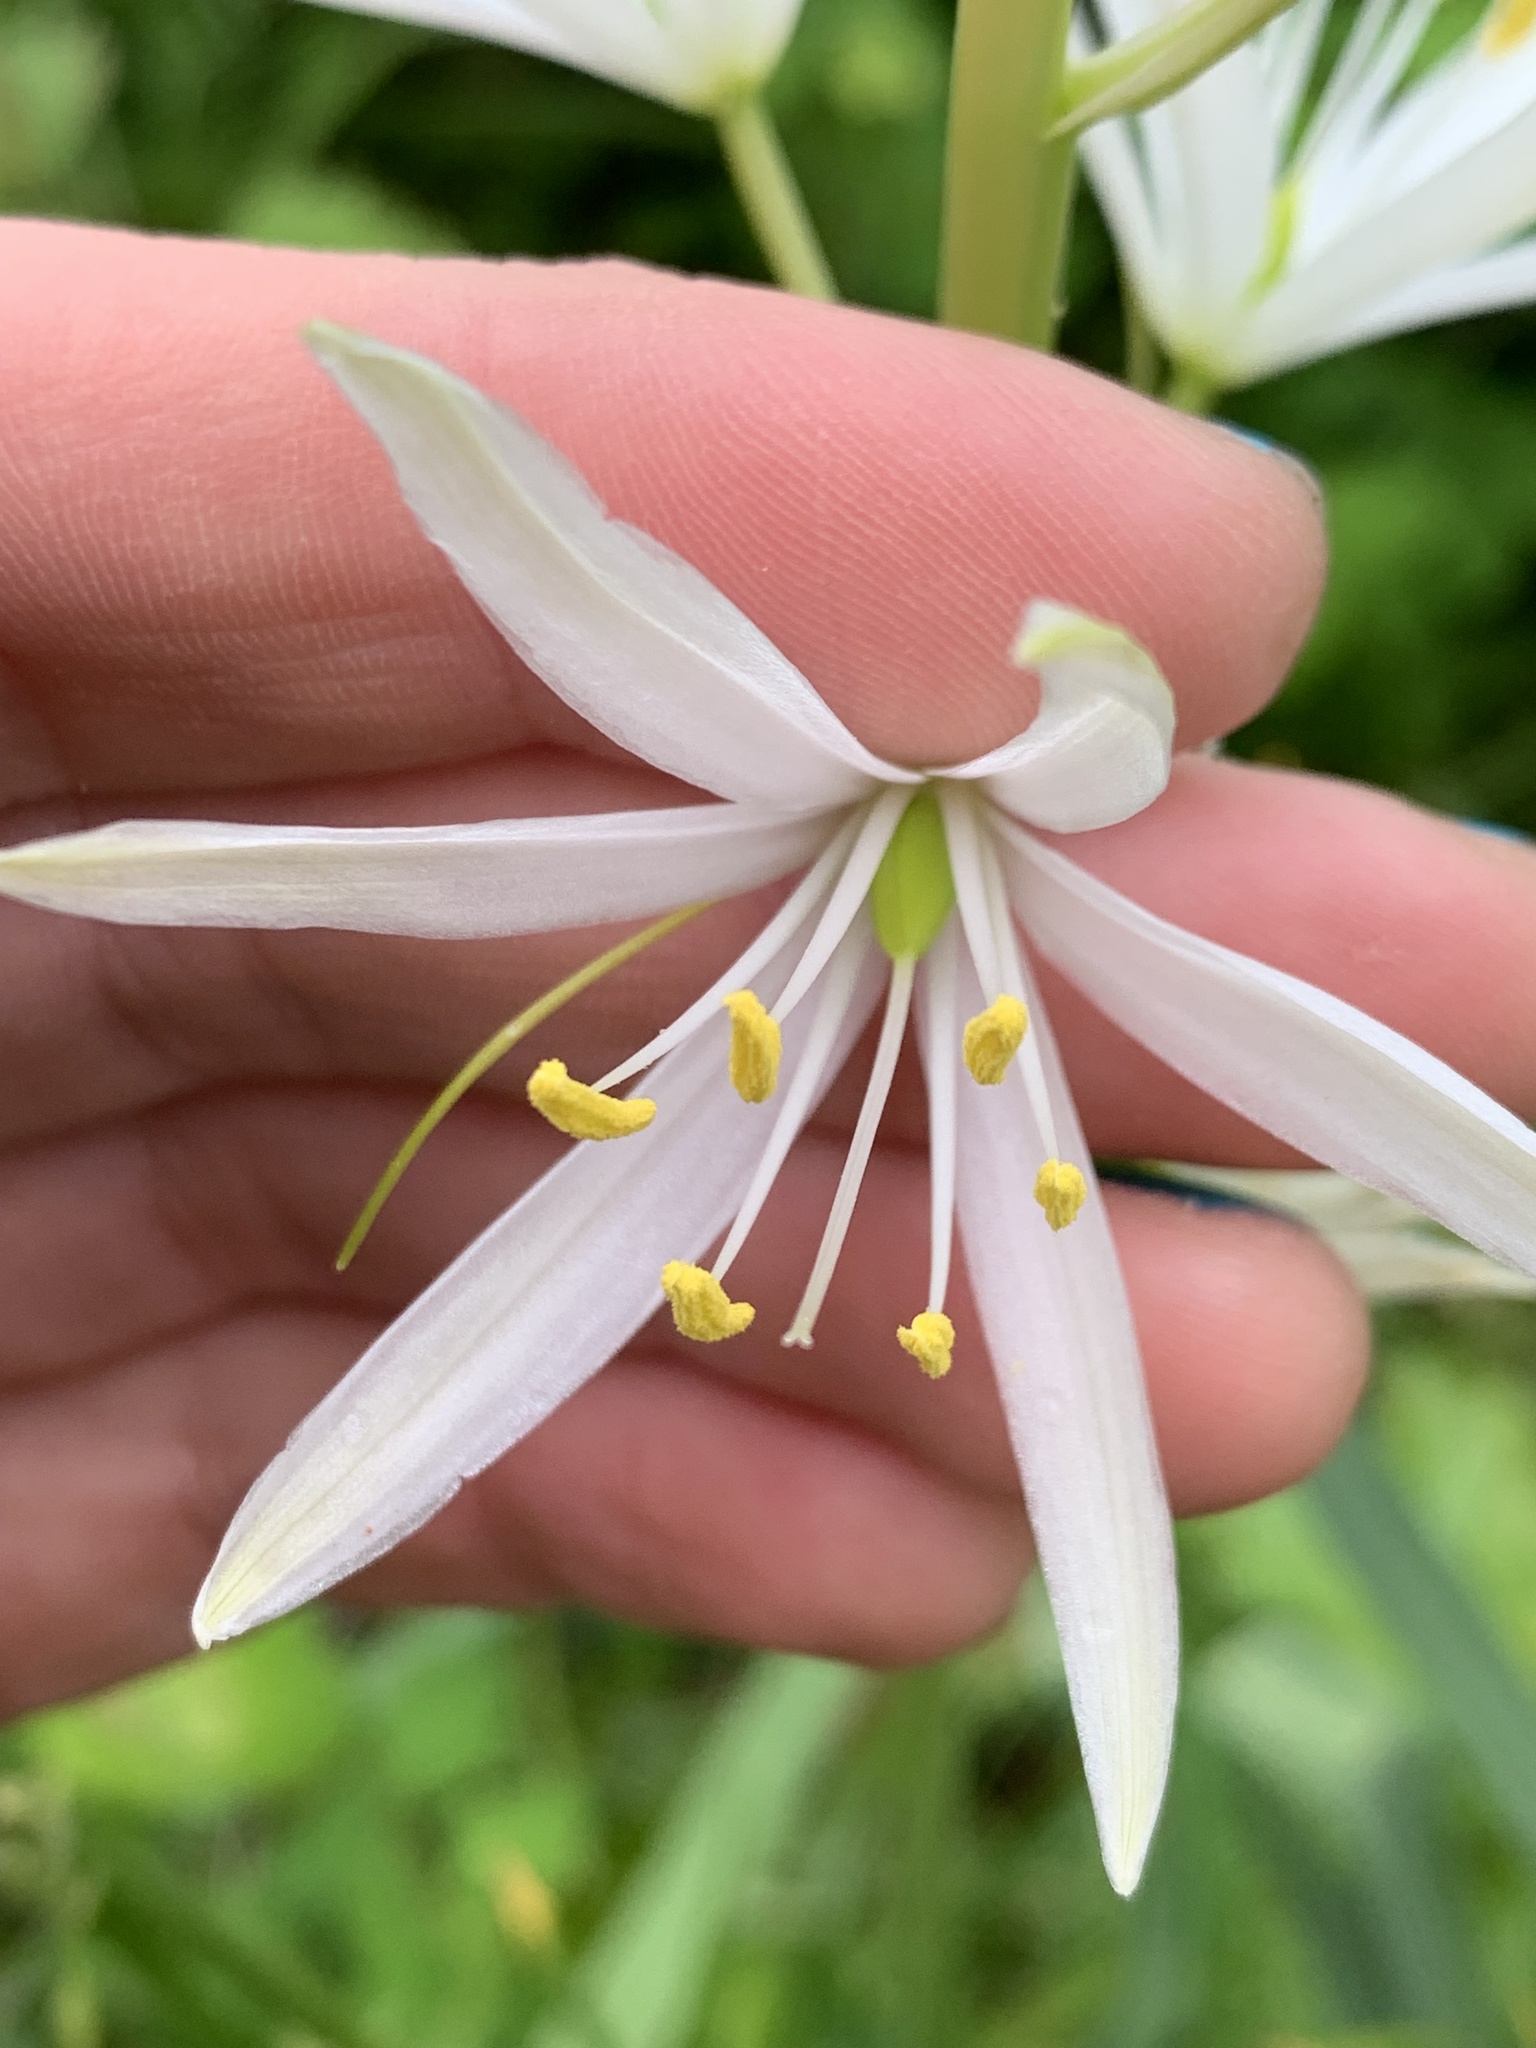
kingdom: Plantae
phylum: Tracheophyta
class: Liliopsida
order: Asparagales
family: Asparagaceae
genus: Camassia
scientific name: Camassia leichtlinii
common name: Leichtlin's camas
